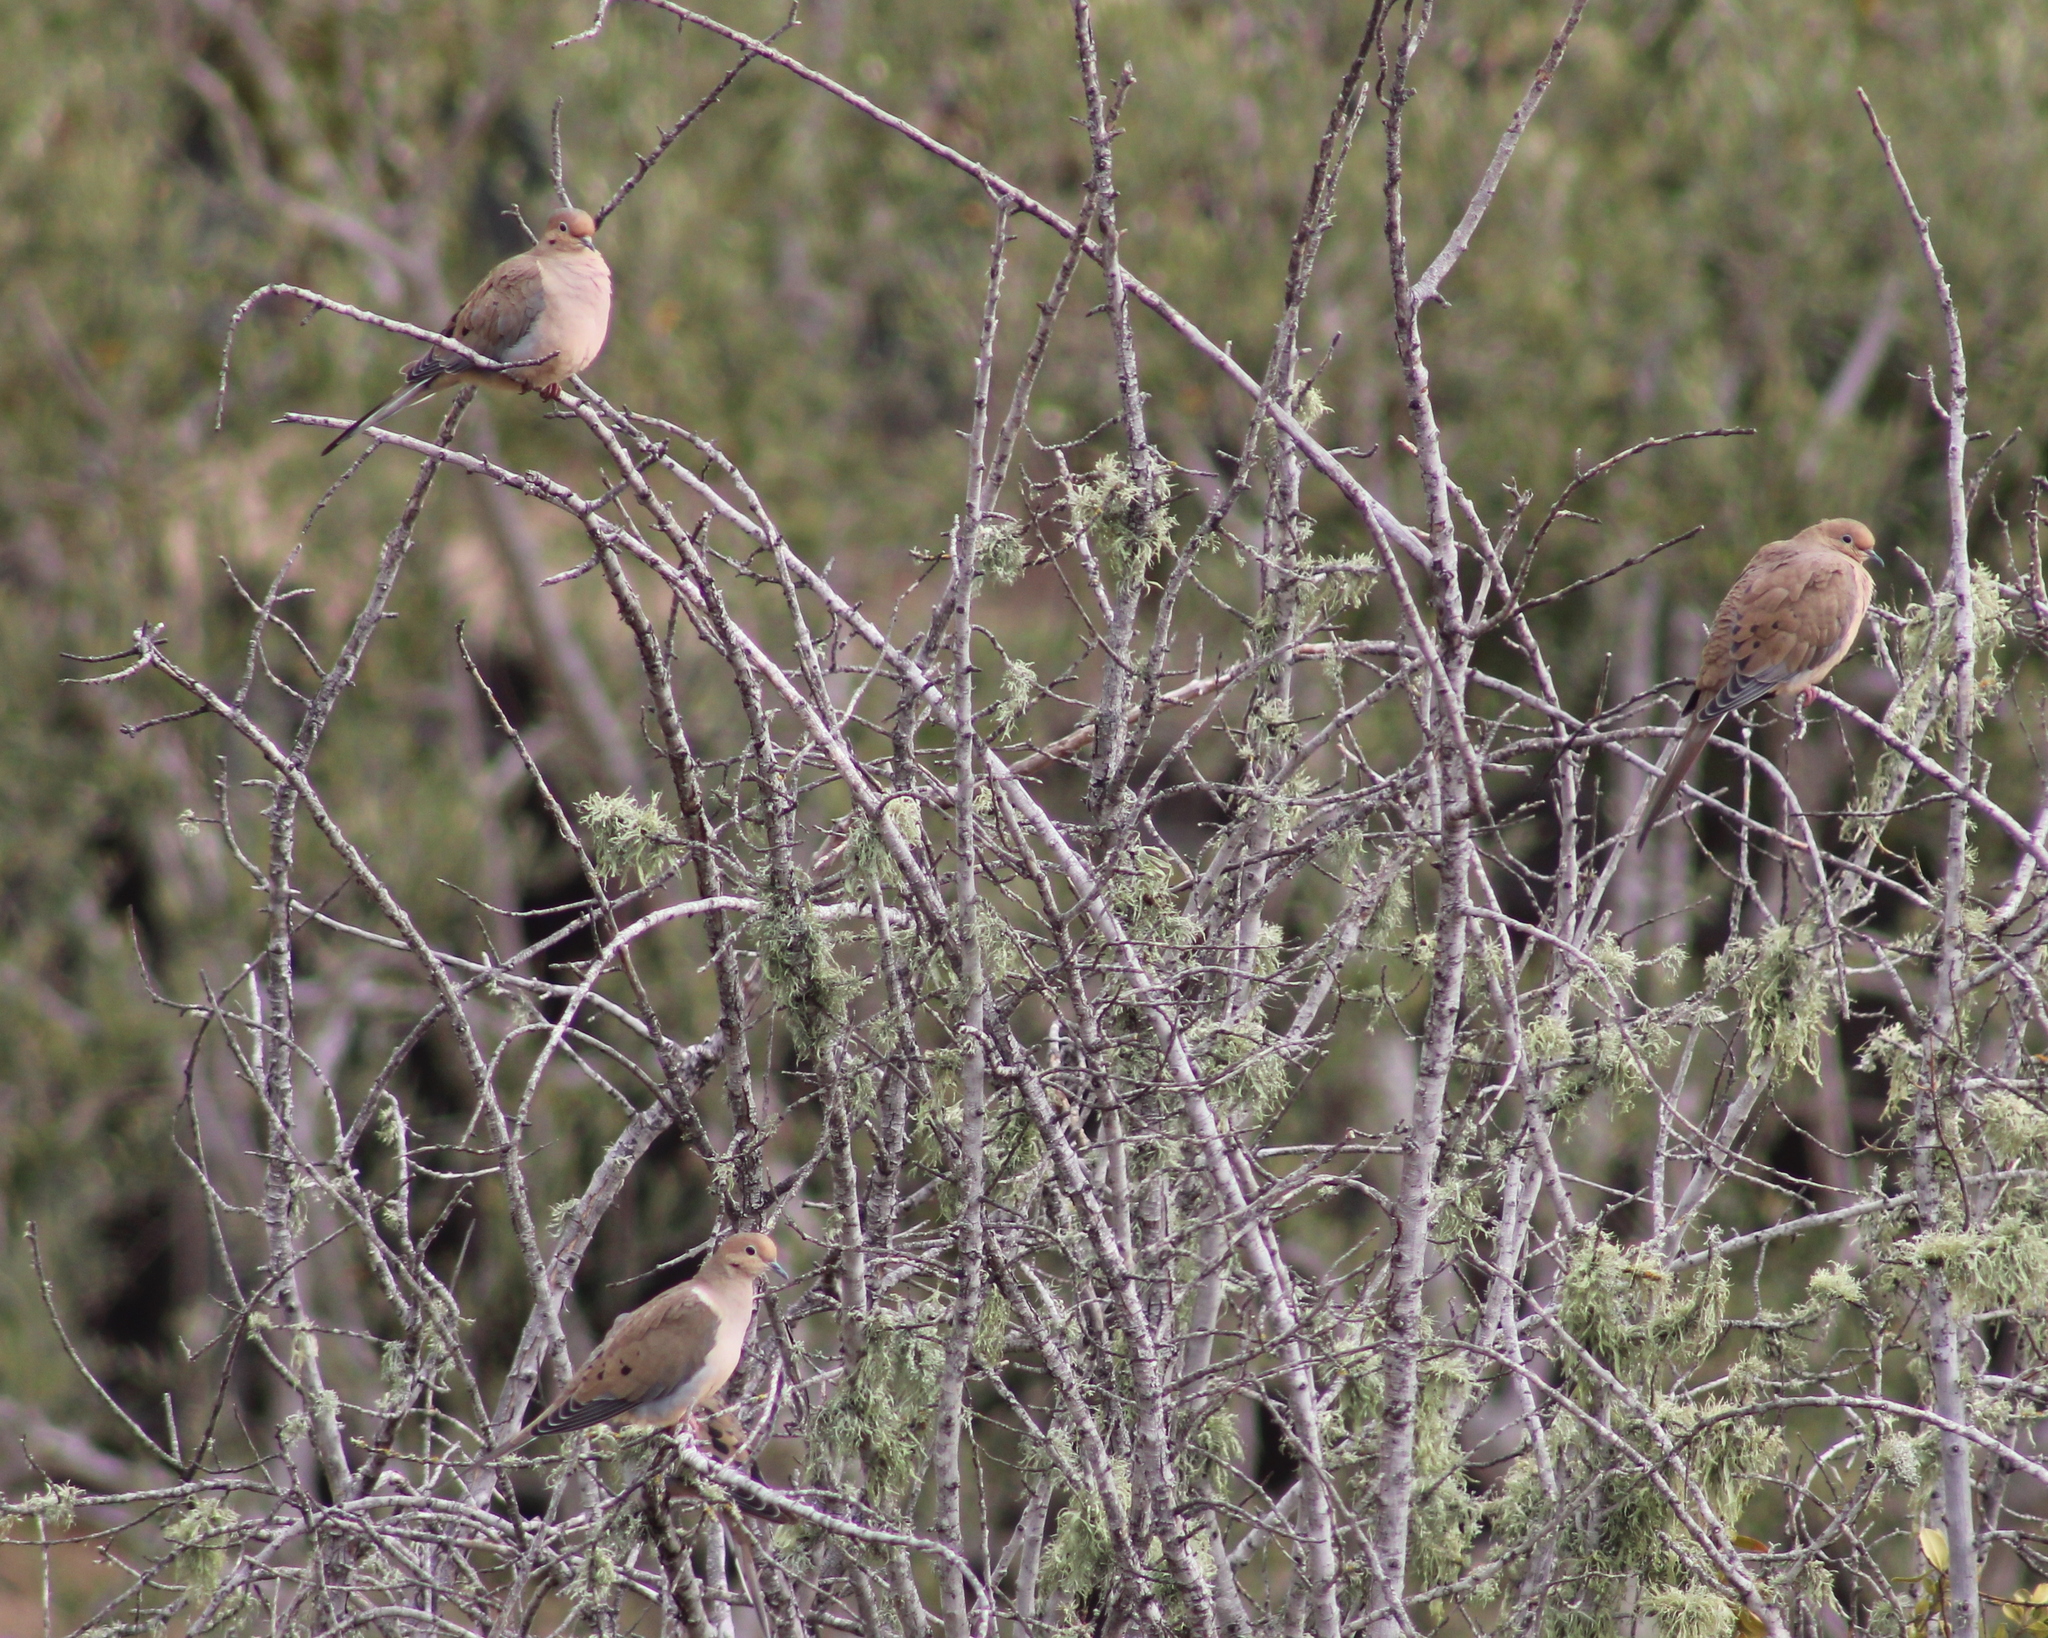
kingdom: Animalia
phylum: Chordata
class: Aves
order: Columbiformes
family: Columbidae
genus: Zenaida
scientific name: Zenaida macroura
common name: Mourning dove
